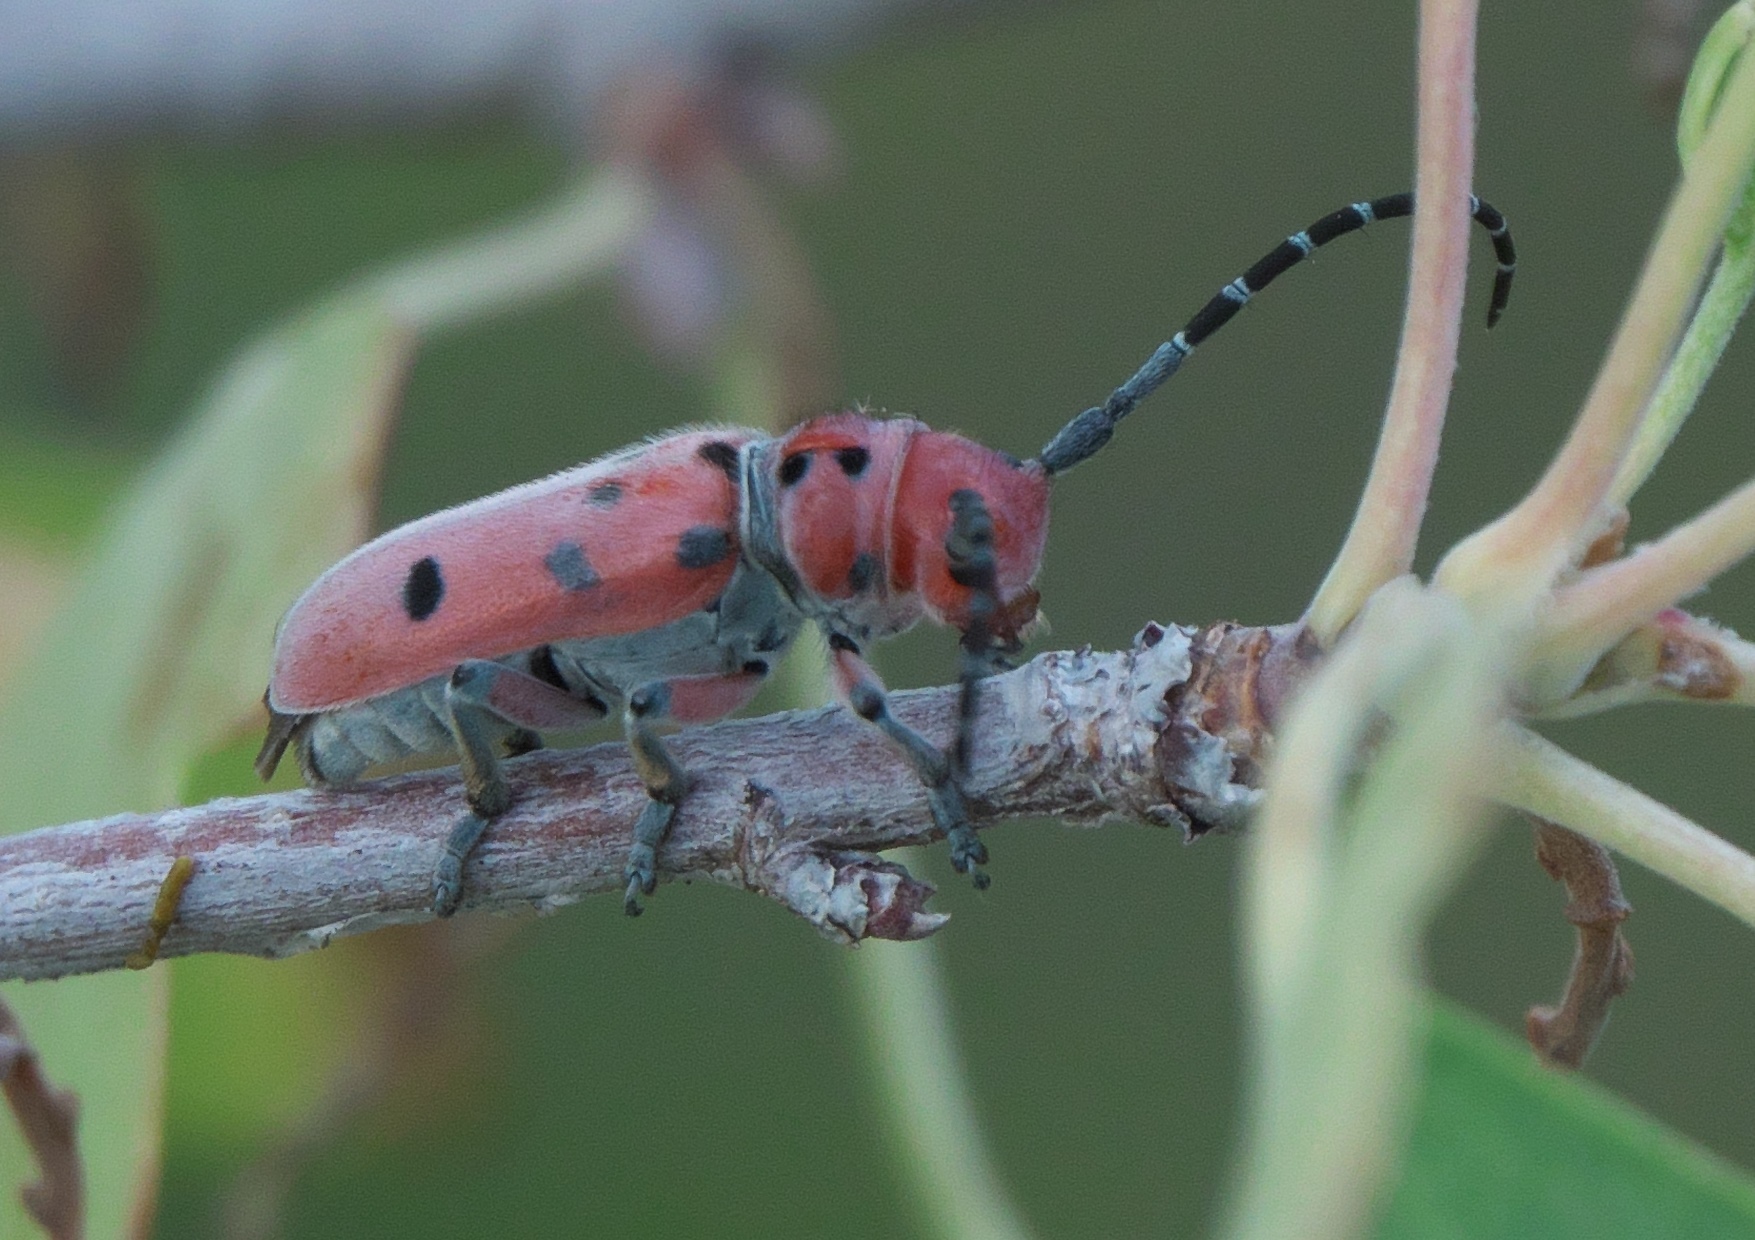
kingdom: Animalia
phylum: Arthropoda
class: Insecta
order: Coleoptera
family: Cerambycidae
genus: Tetraopes
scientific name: Tetraopes femoratus
